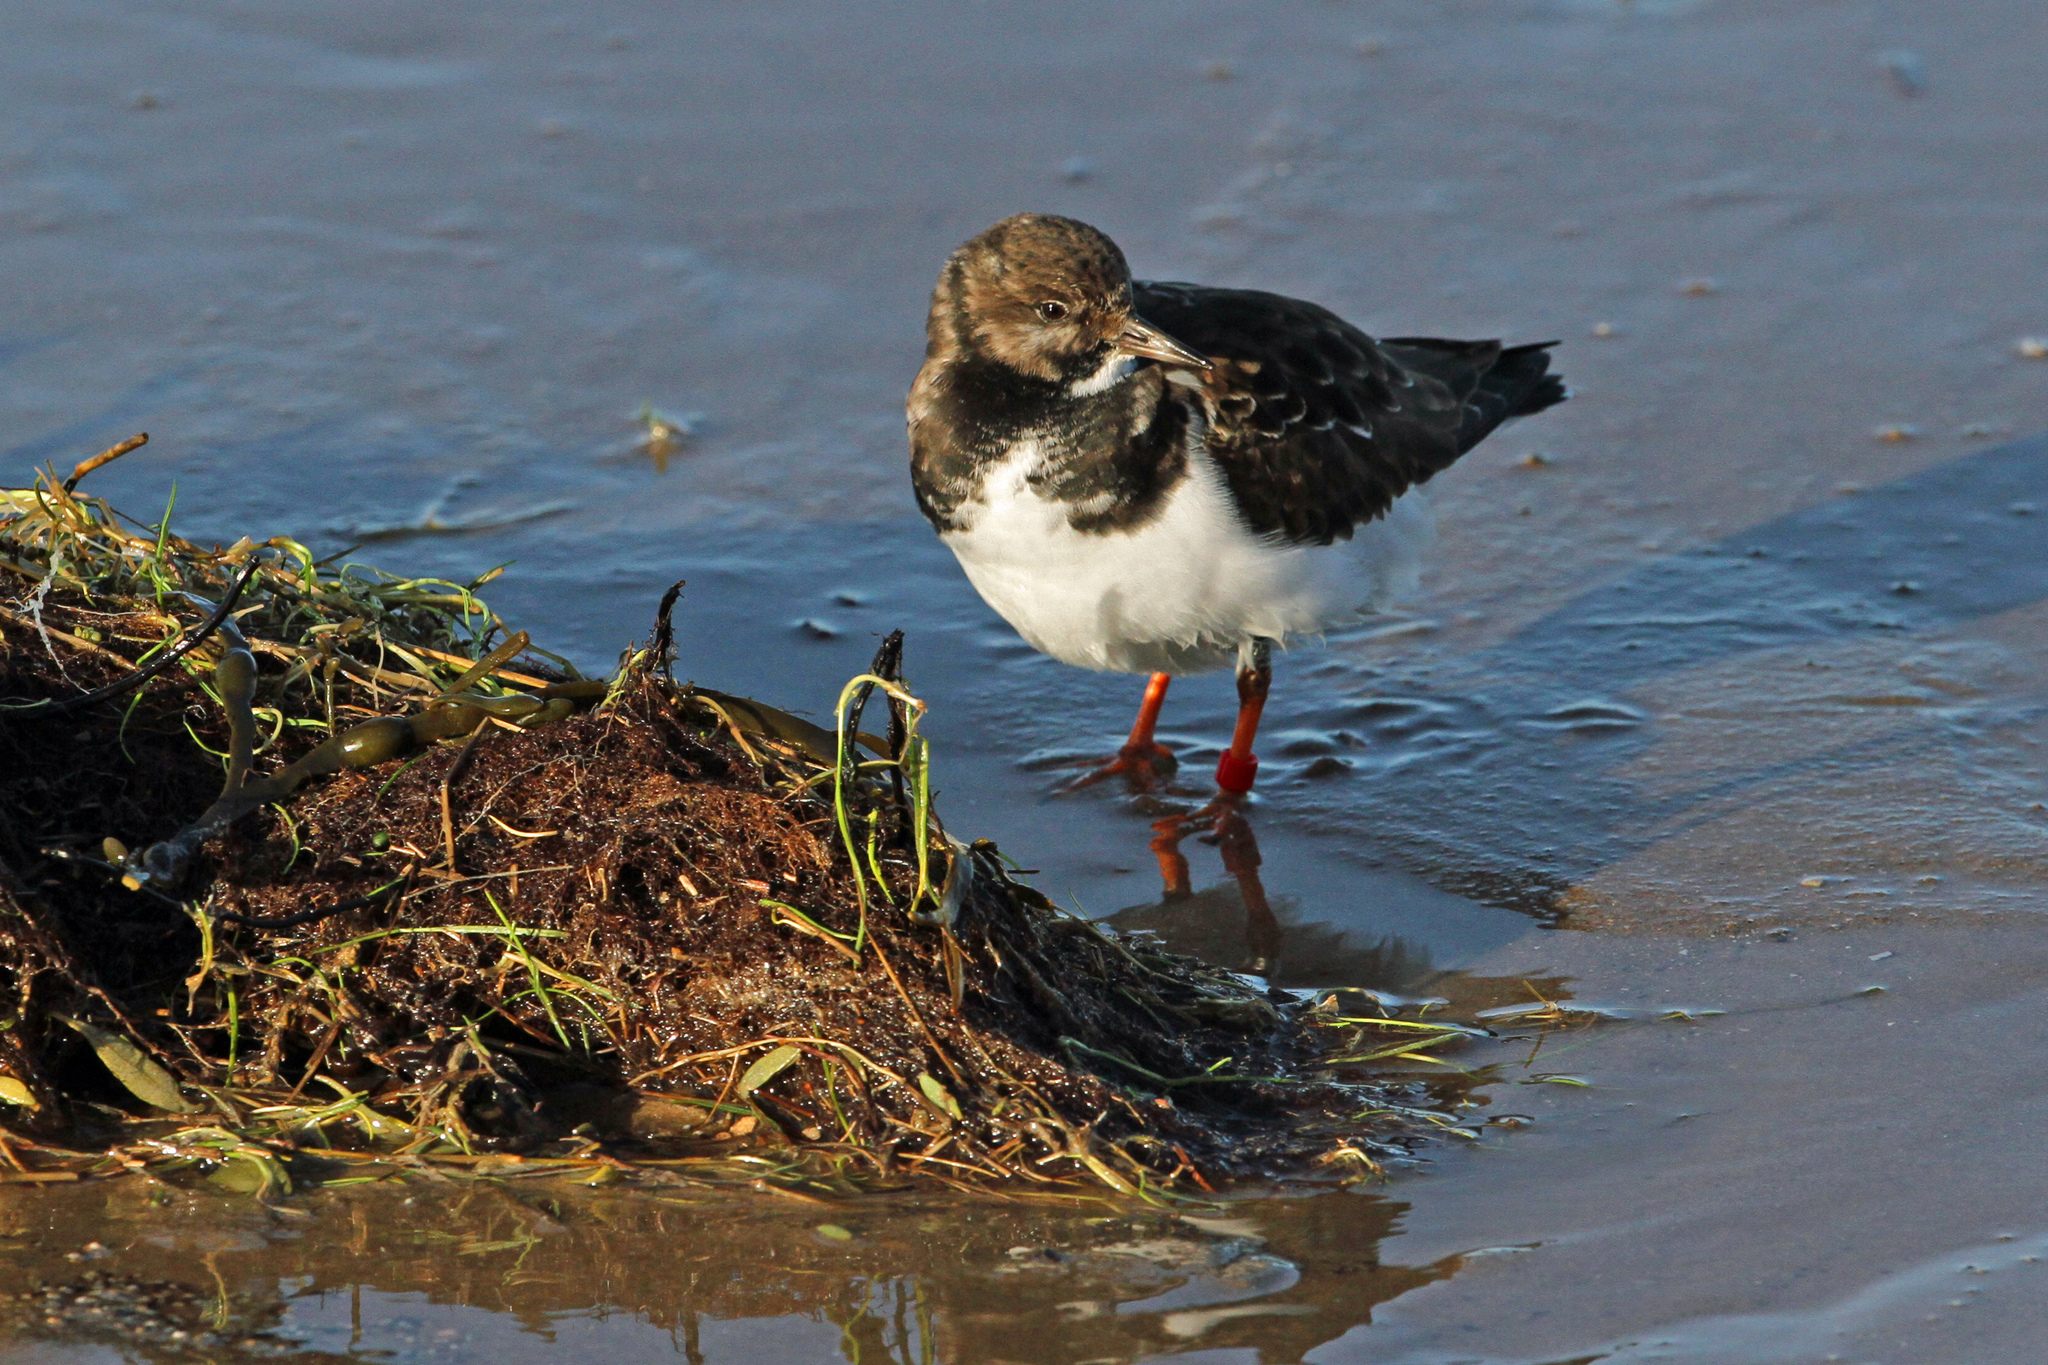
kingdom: Animalia
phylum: Chordata
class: Aves
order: Charadriiformes
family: Scolopacidae
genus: Arenaria
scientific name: Arenaria interpres
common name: Ruddy turnstone
